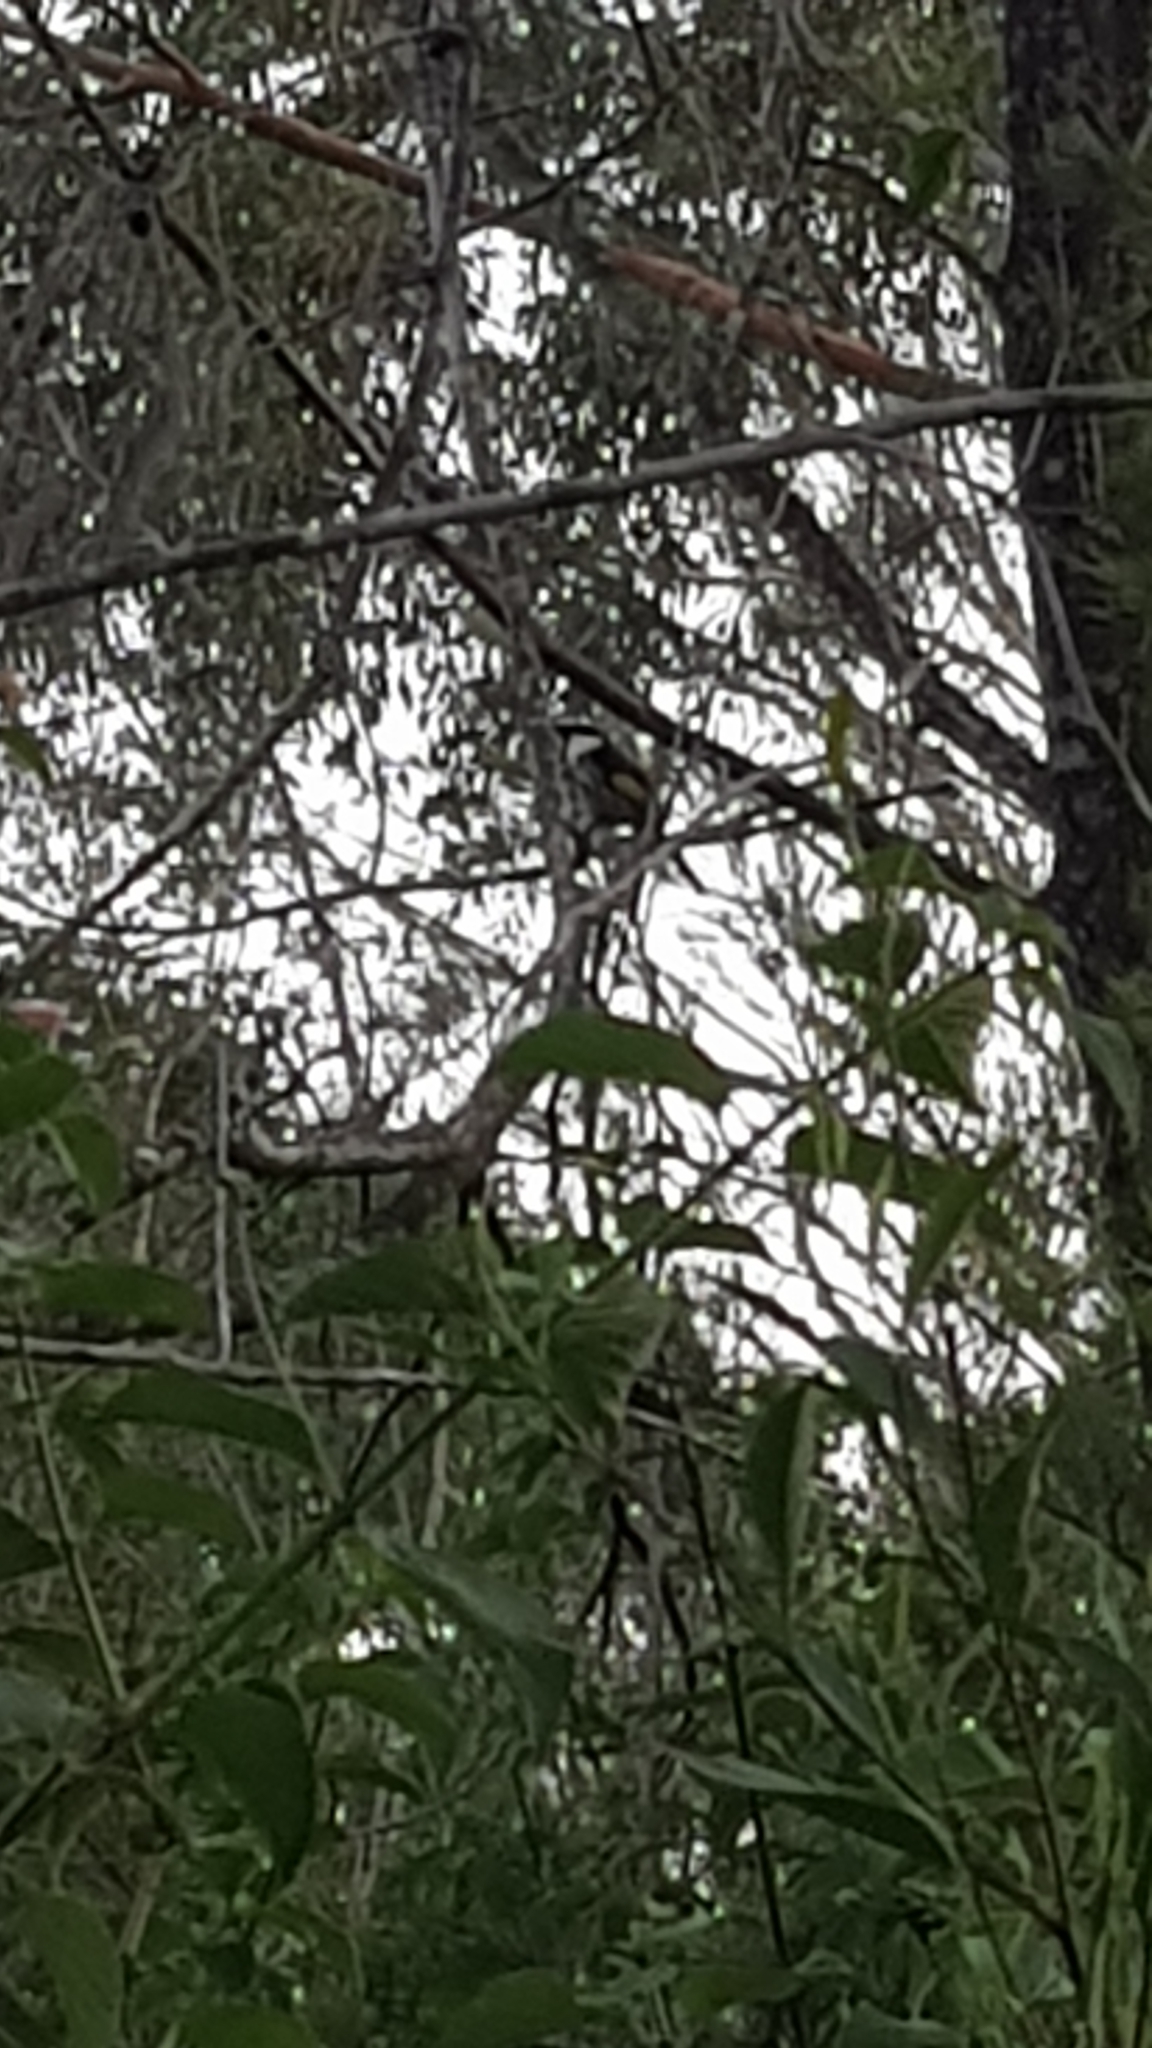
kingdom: Animalia
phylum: Chordata
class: Aves
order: Passeriformes
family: Meliphagidae
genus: Phylidonyris
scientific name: Phylidonyris niger
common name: White-cheeked honeyeater
